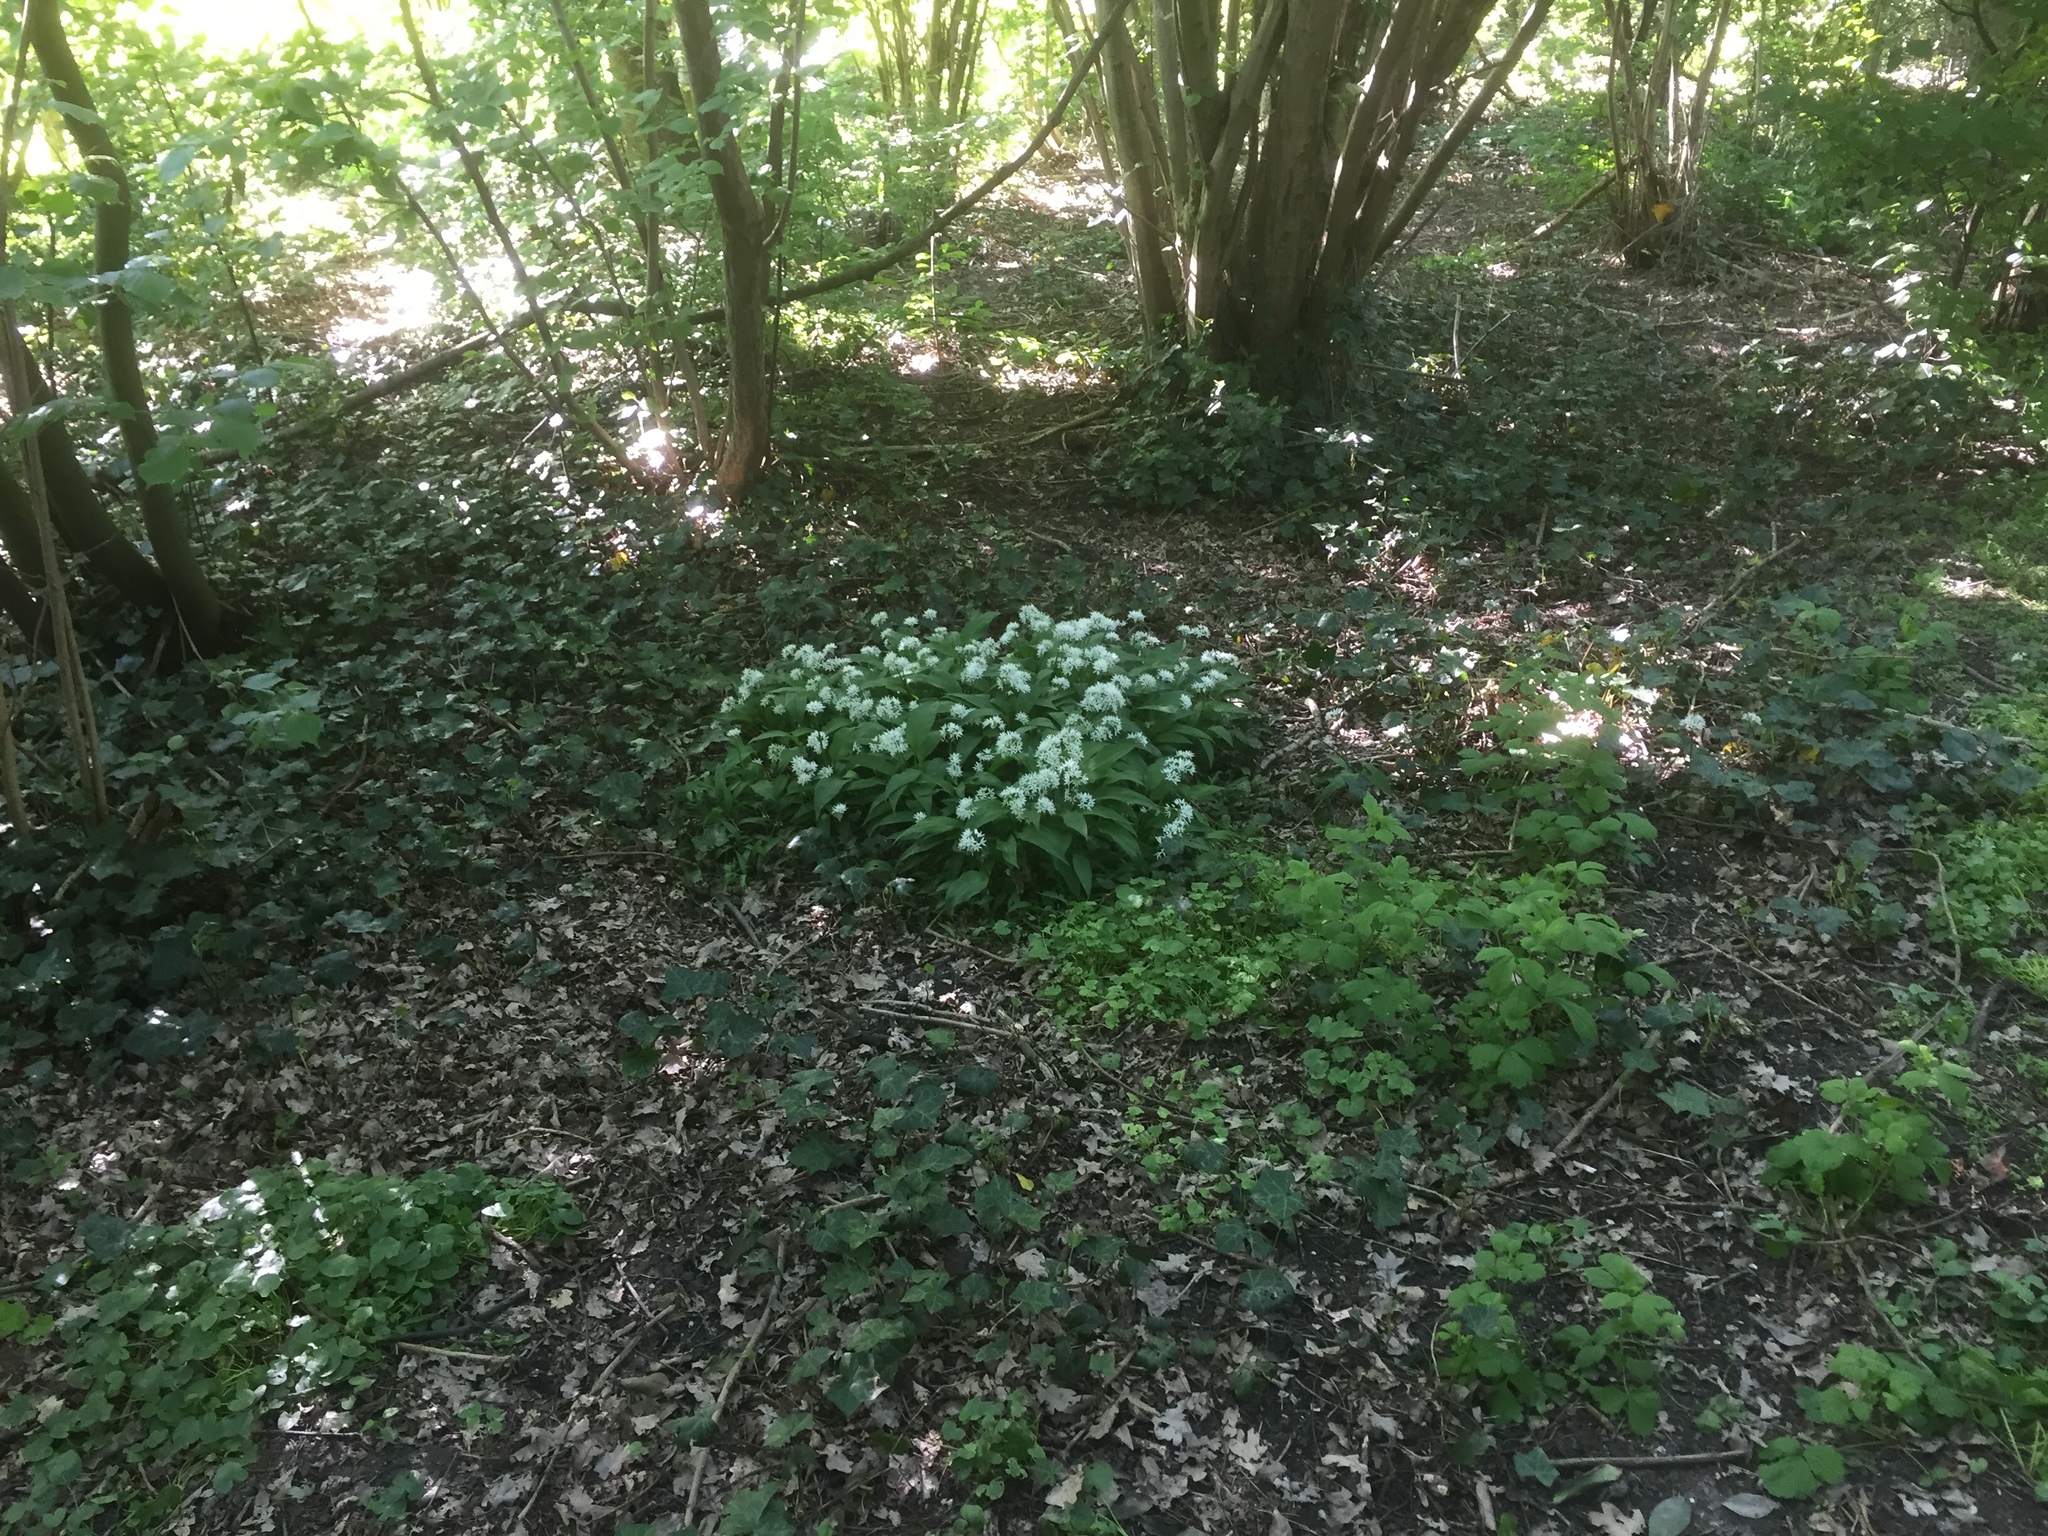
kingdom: Plantae
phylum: Tracheophyta
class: Liliopsida
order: Asparagales
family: Amaryllidaceae
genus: Allium
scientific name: Allium ursinum
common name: Ramsons
